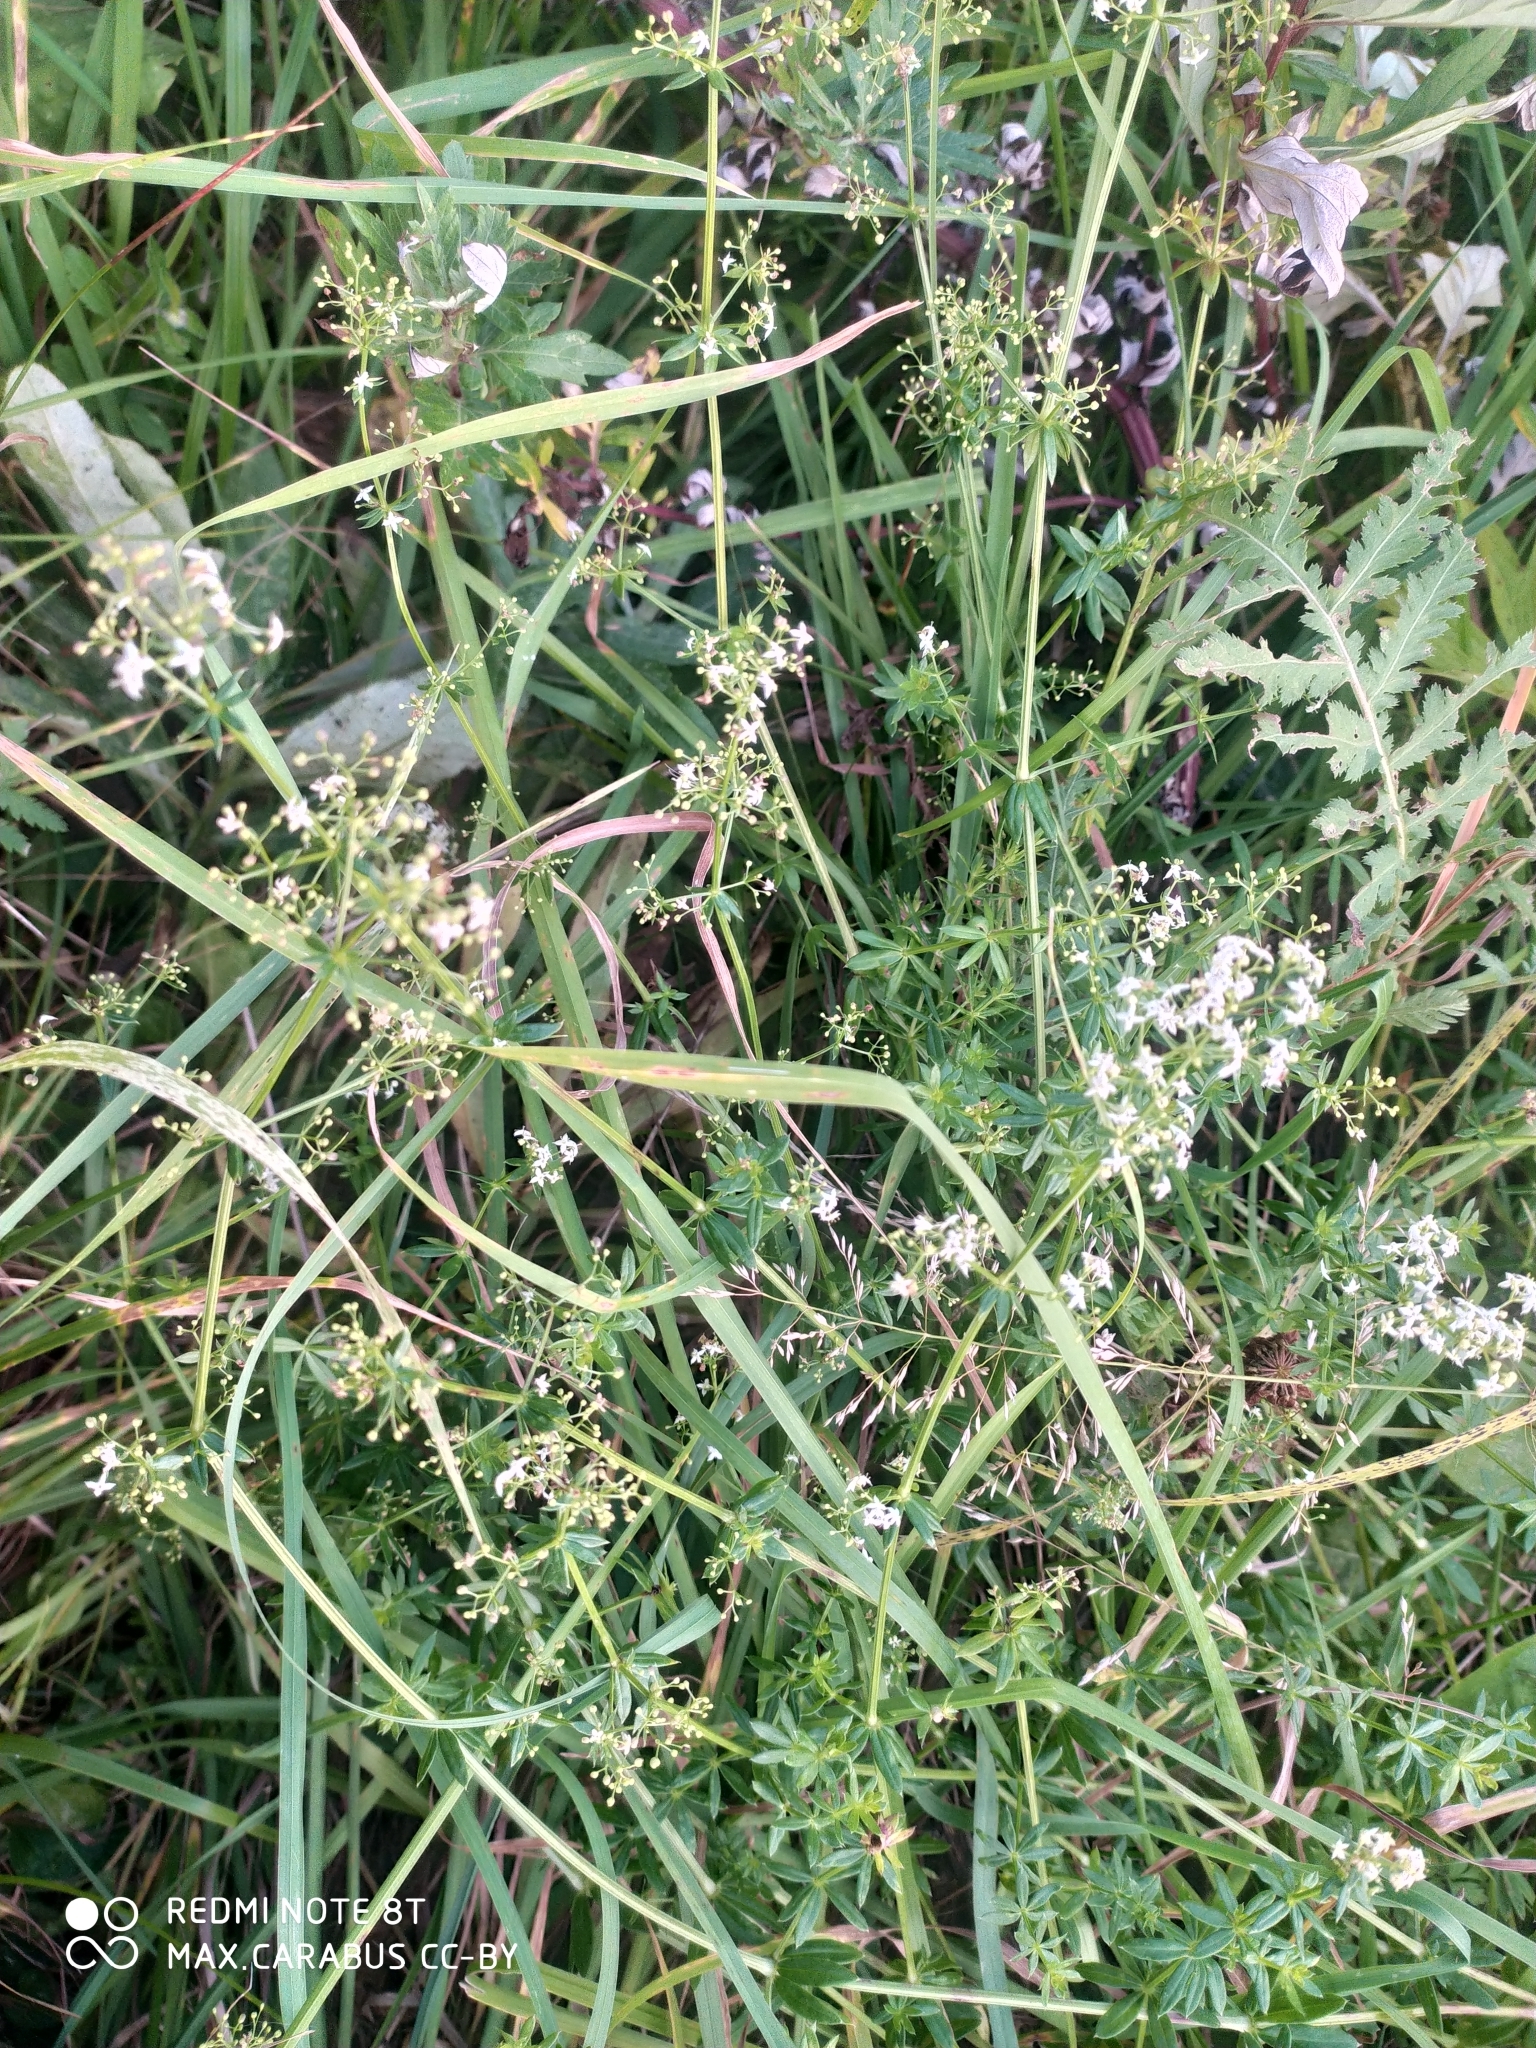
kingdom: Plantae
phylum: Tracheophyta
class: Magnoliopsida
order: Gentianales
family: Rubiaceae
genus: Galium
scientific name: Galium mollugo
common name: Hedge bedstraw
